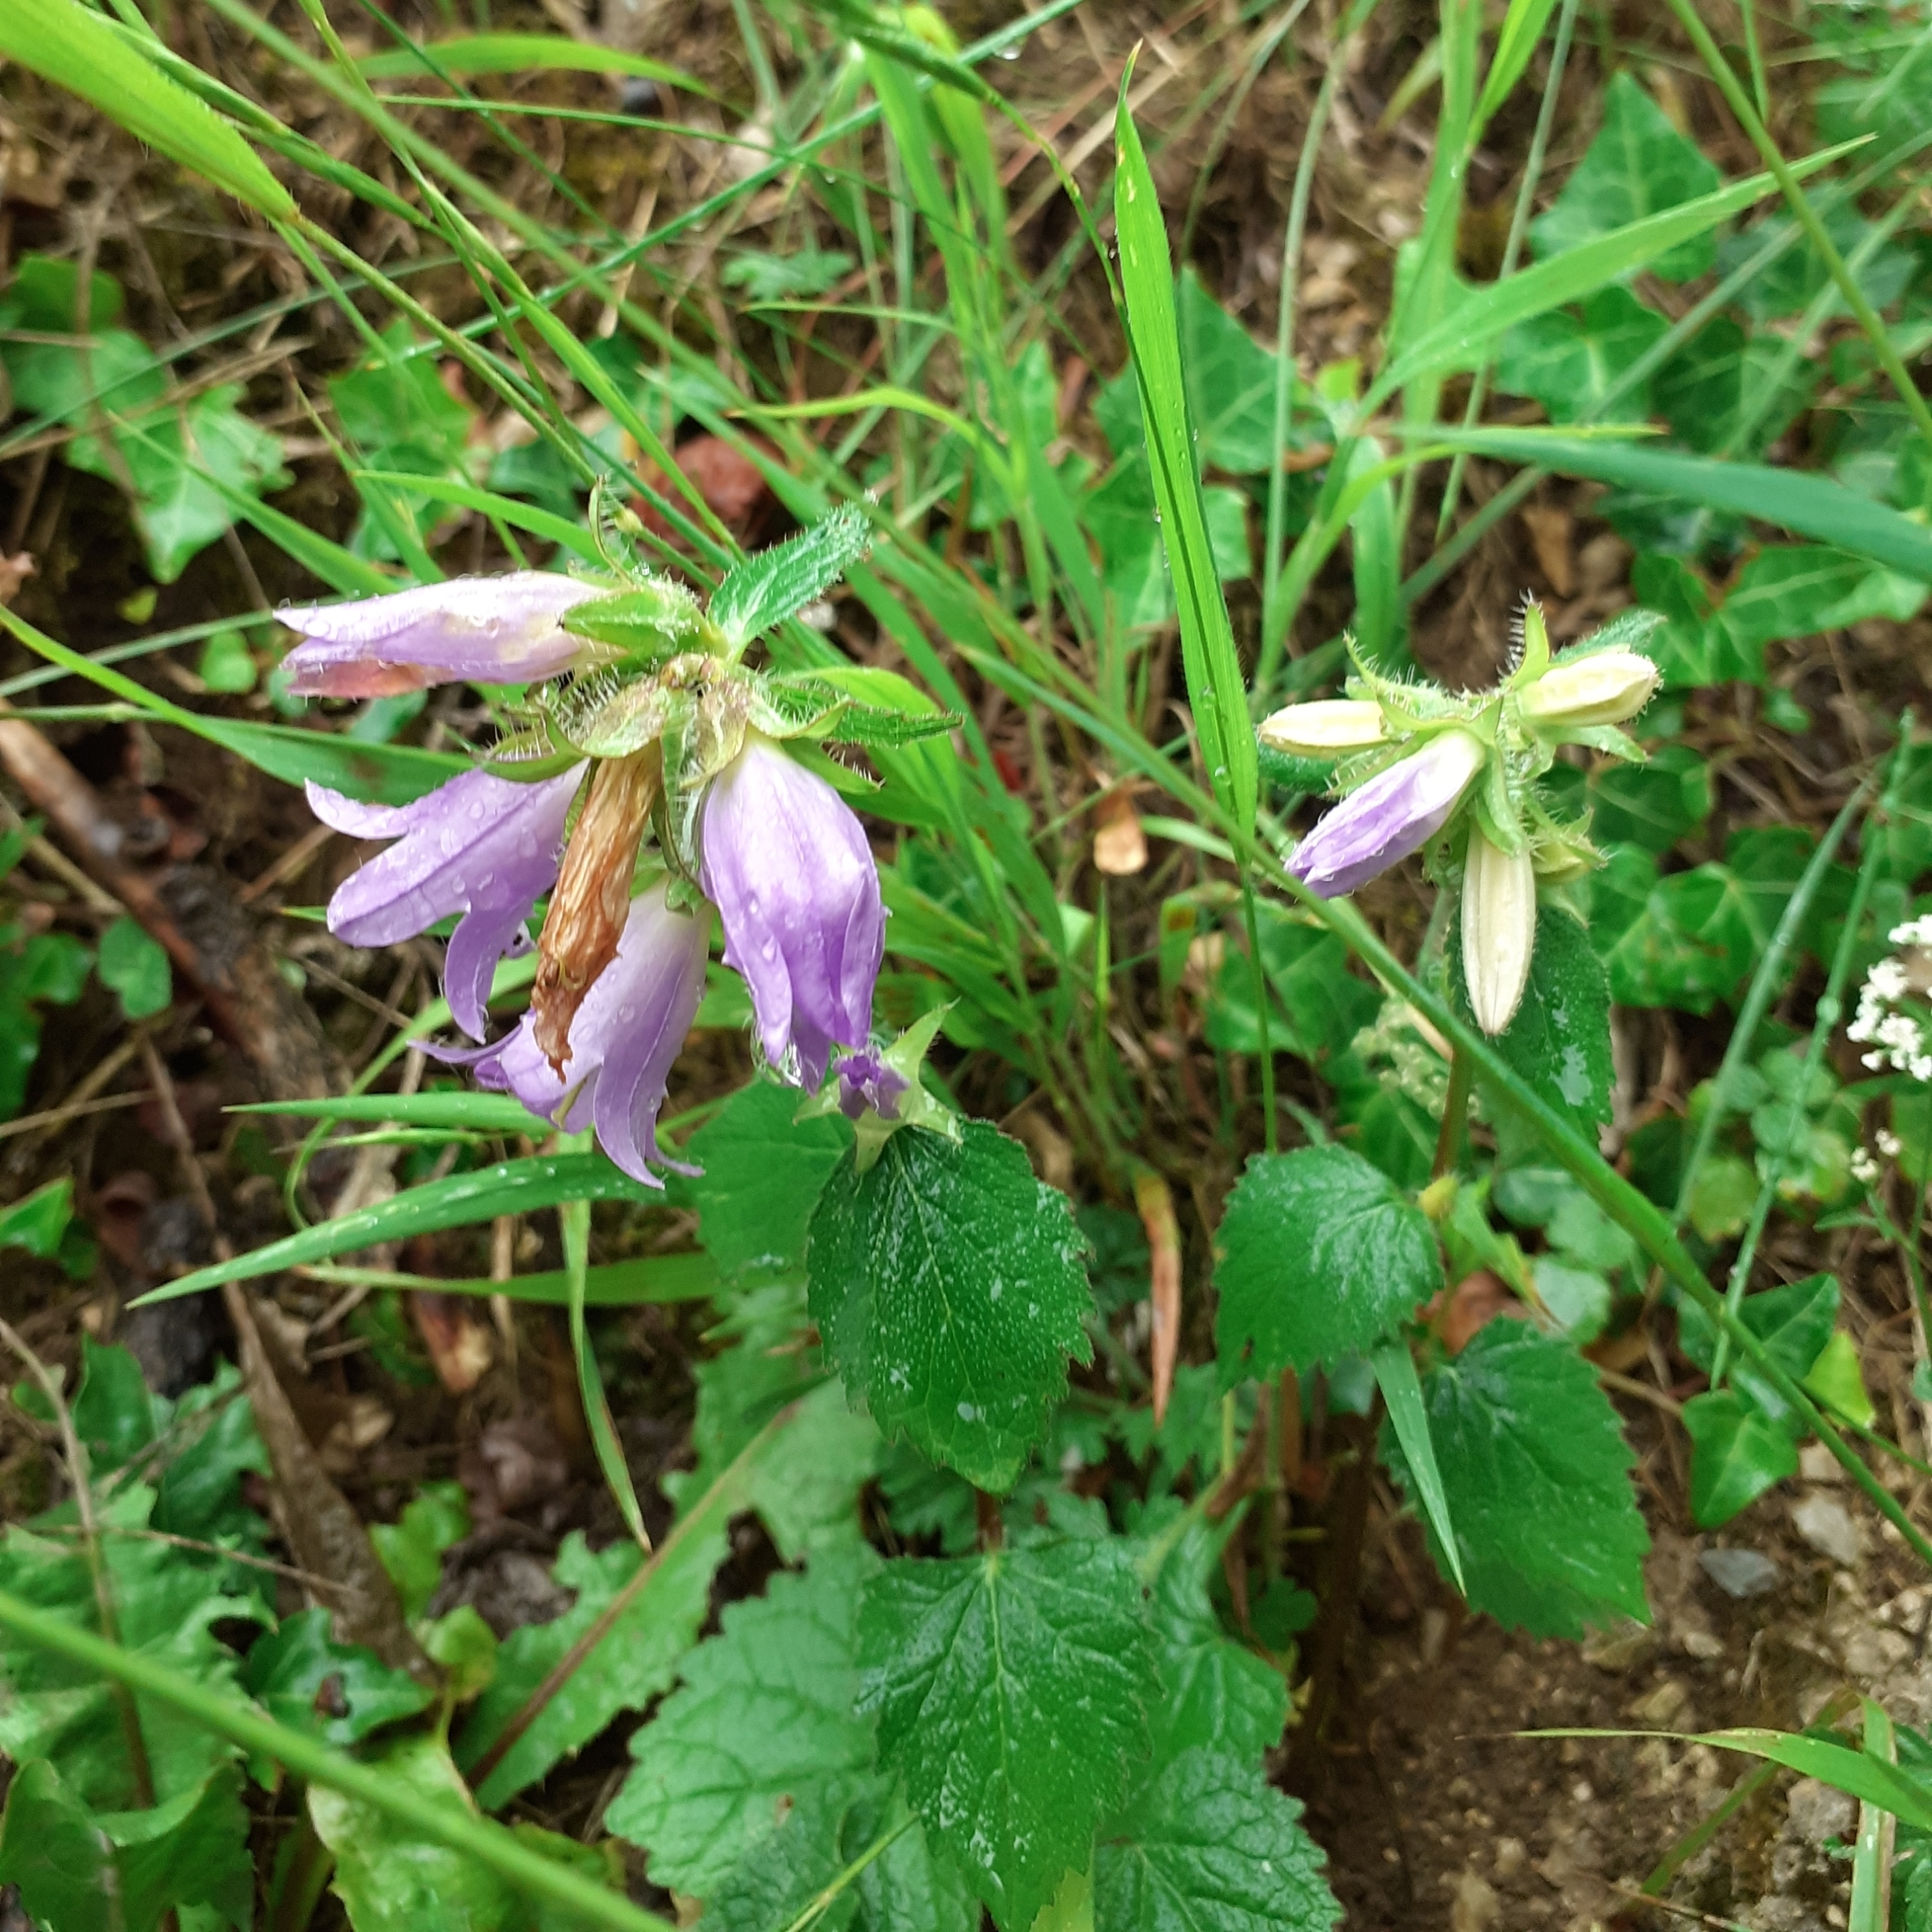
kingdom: Plantae
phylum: Tracheophyta
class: Magnoliopsida
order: Asterales
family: Campanulaceae
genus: Campanula
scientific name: Campanula trachelium
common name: Nettle-leaved bellflower
